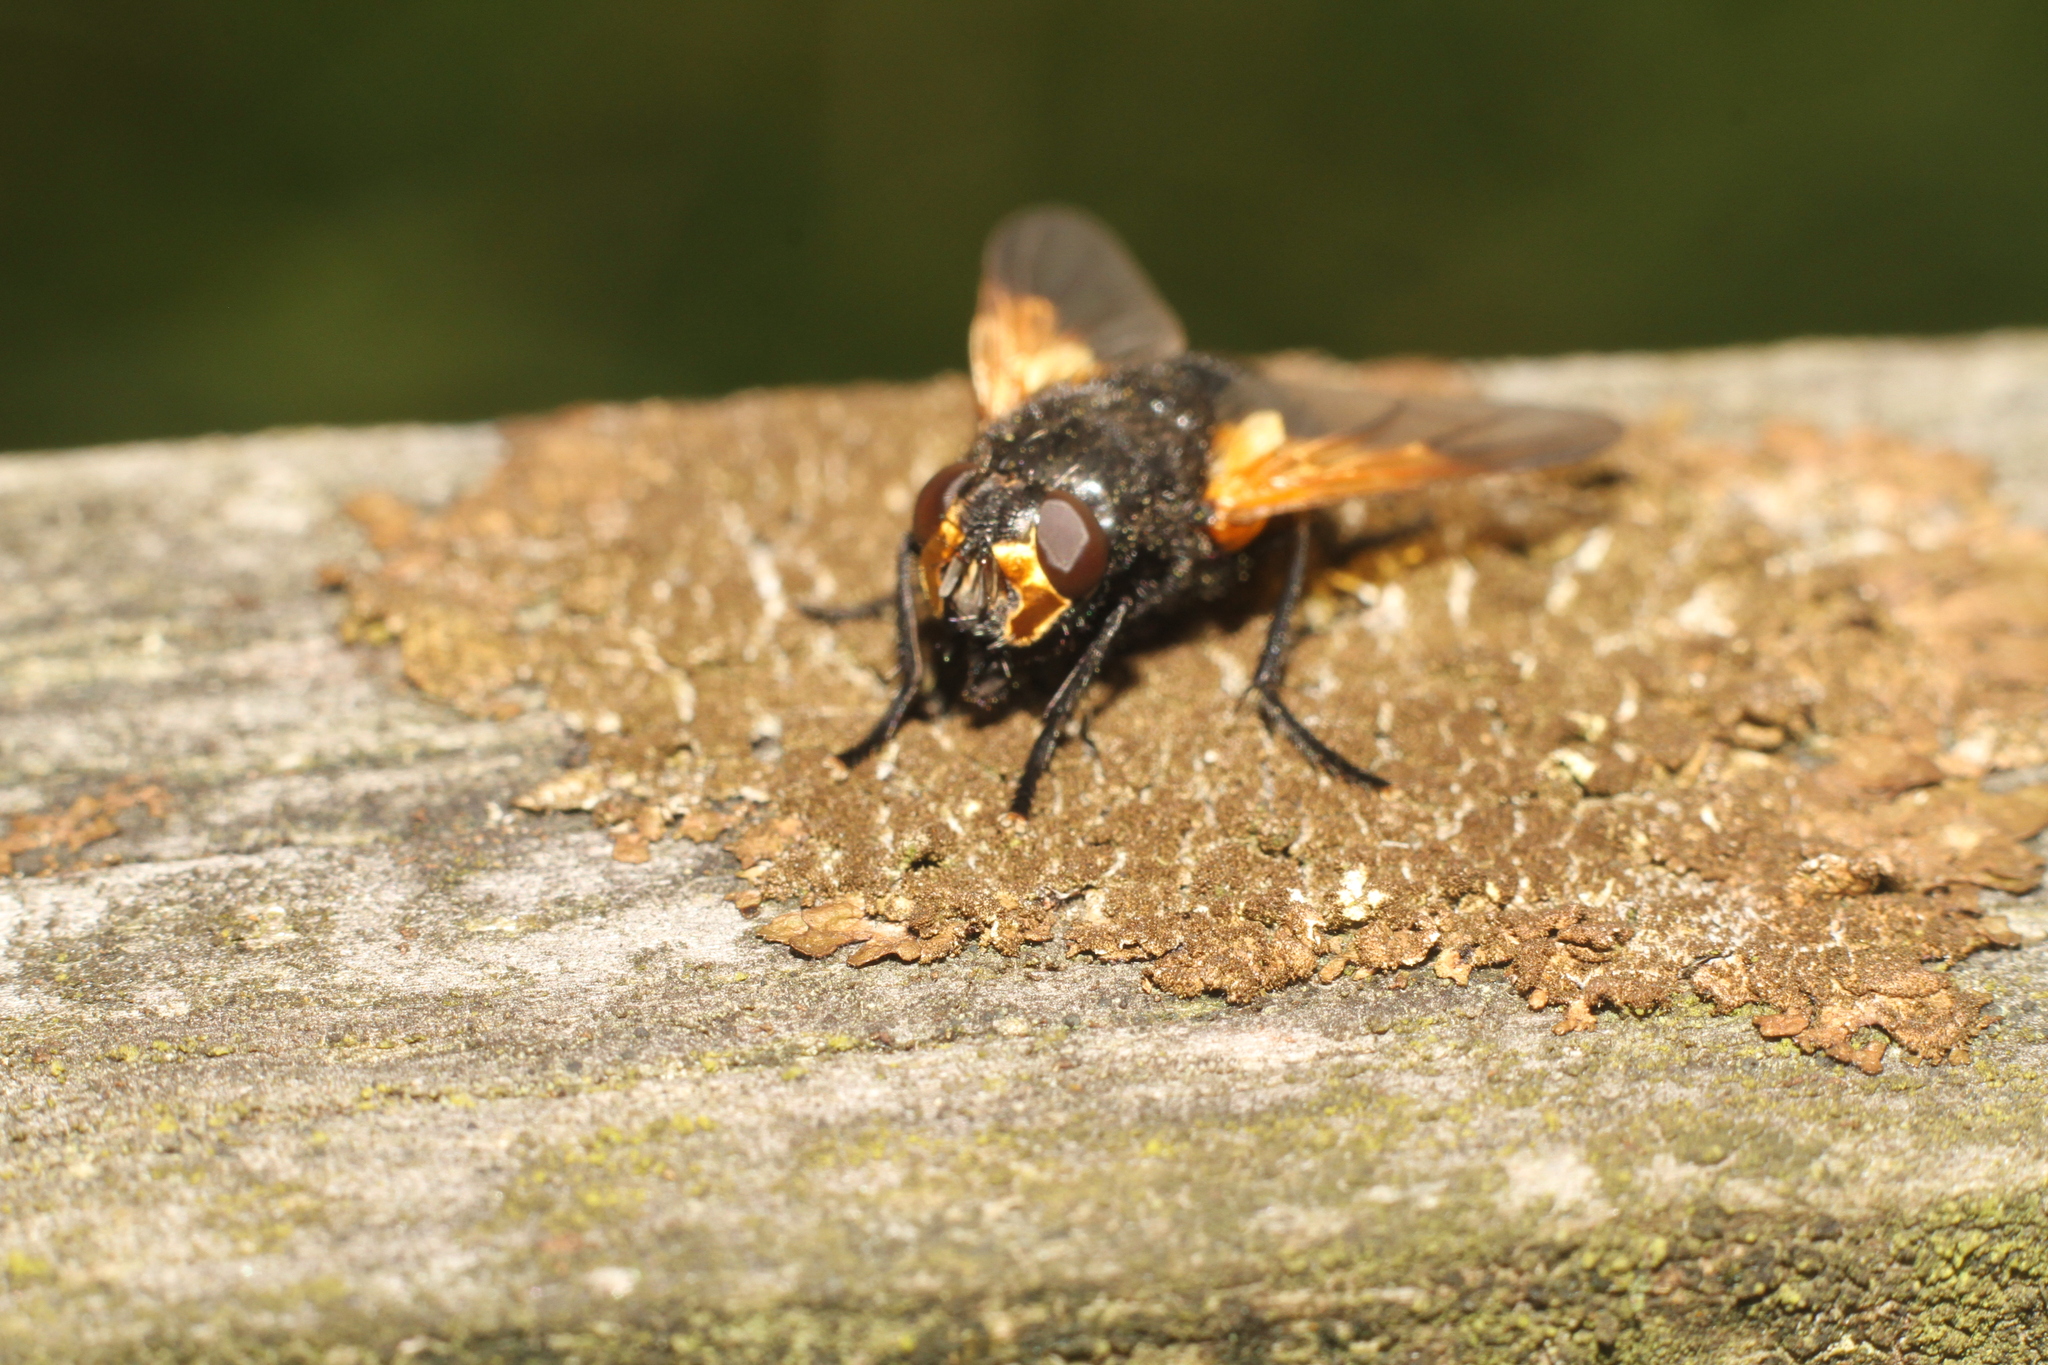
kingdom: Animalia
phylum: Arthropoda
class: Insecta
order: Diptera
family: Muscidae
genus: Mesembrina
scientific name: Mesembrina meridiana
